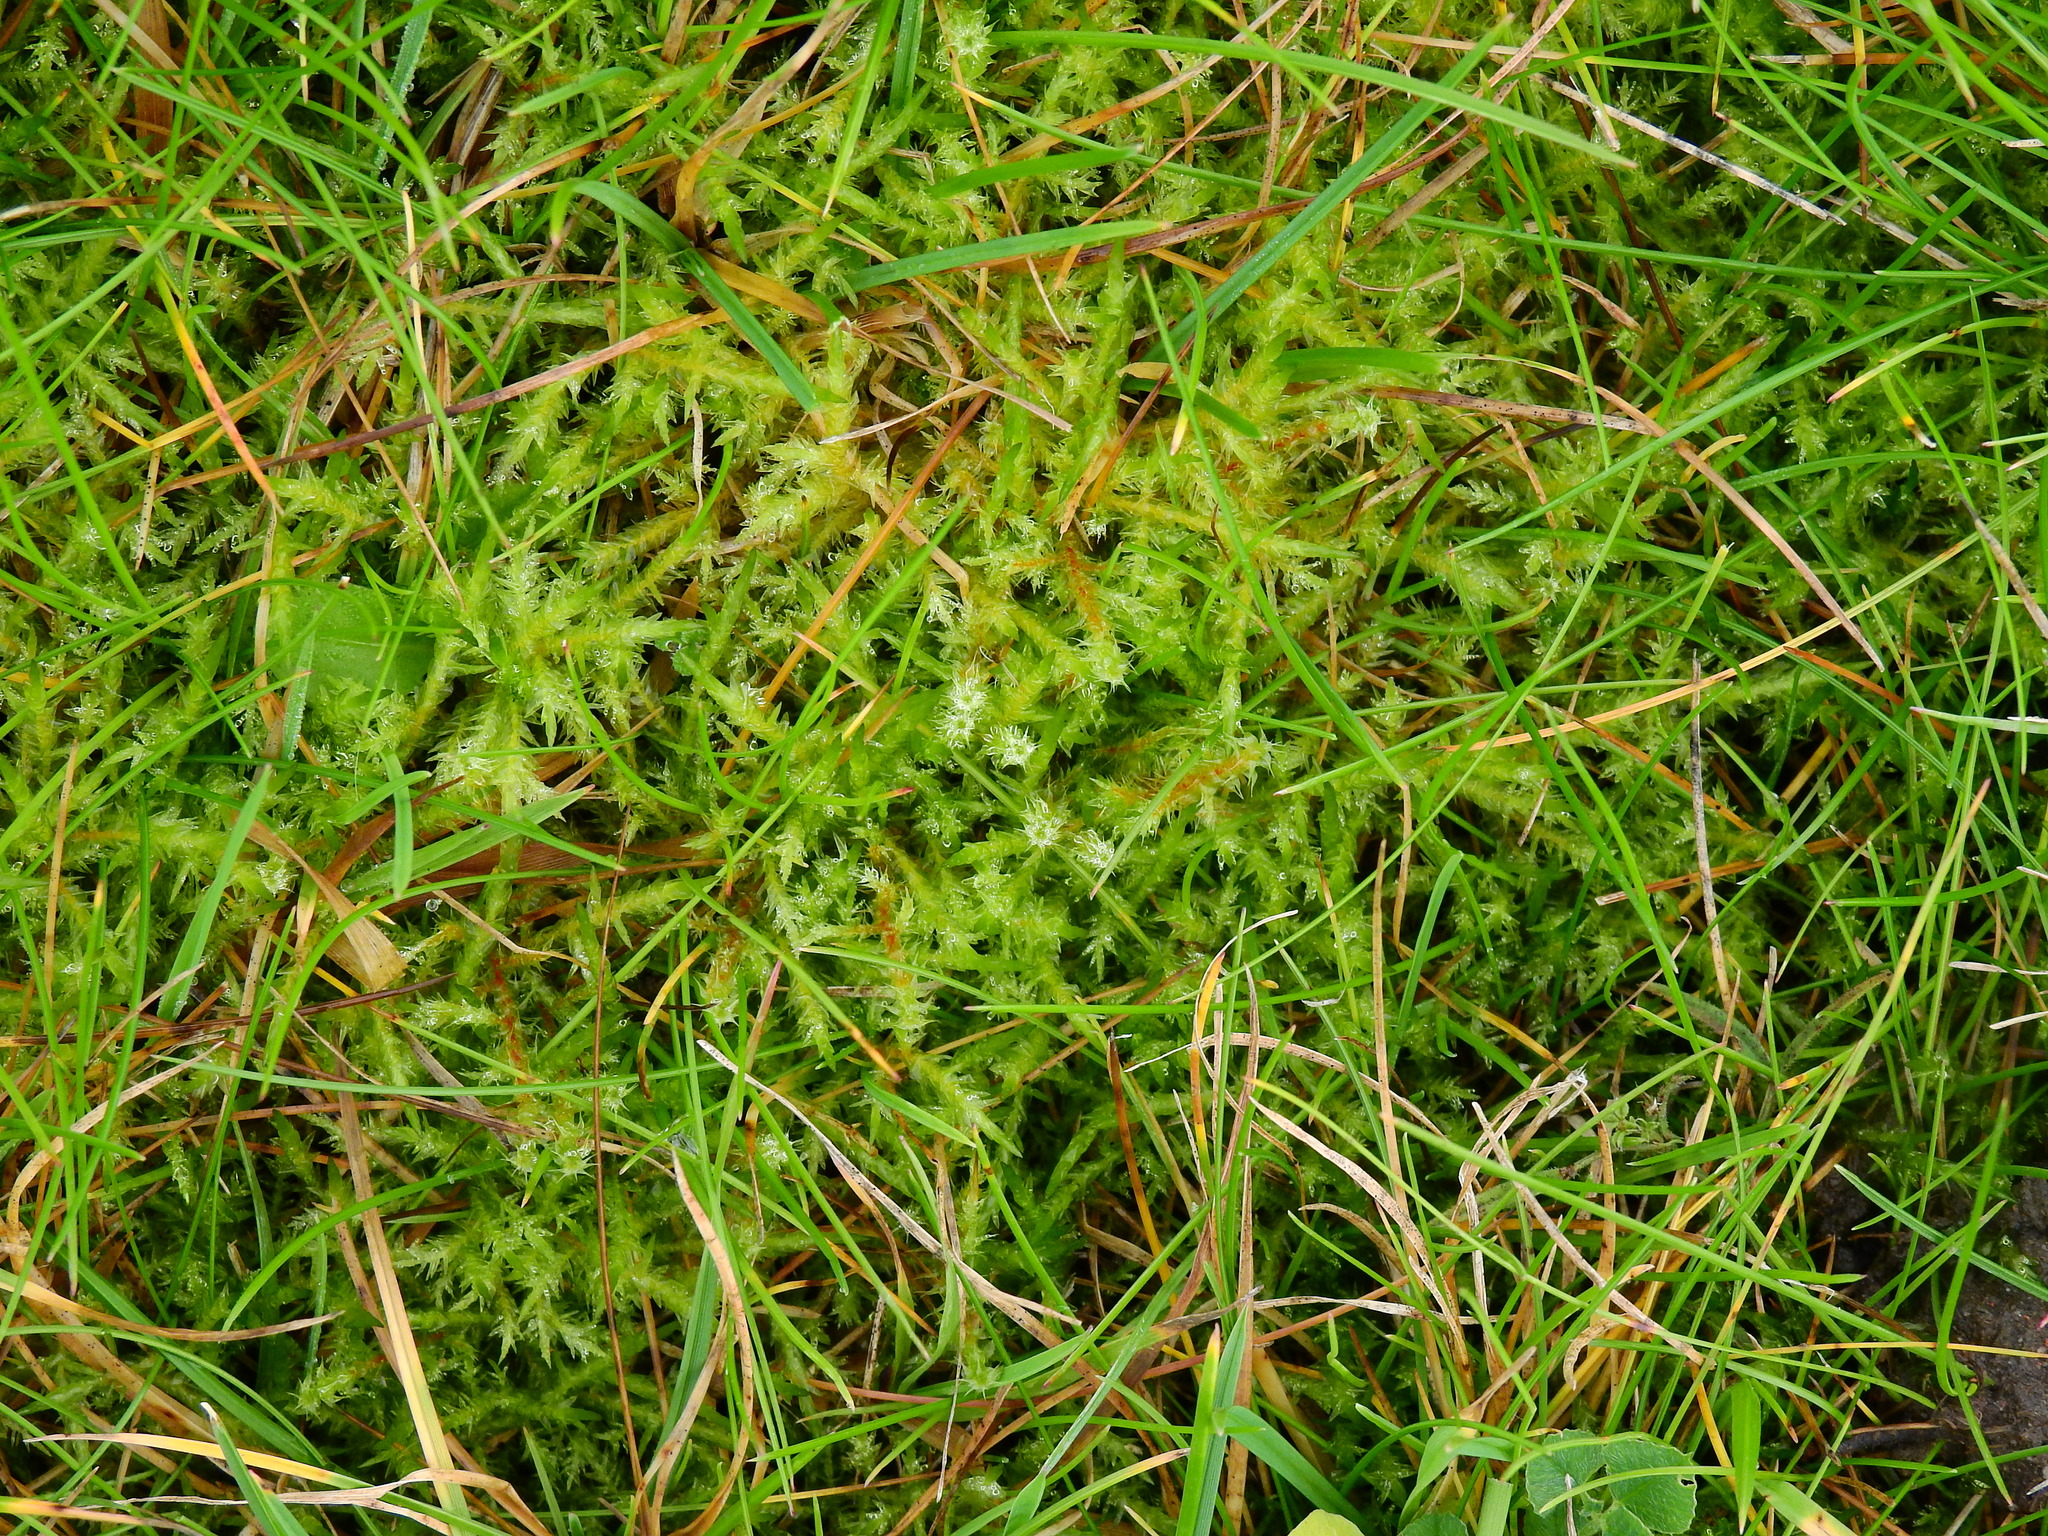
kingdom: Plantae
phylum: Bryophyta
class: Bryopsida
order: Hypnales
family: Hylocomiaceae
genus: Rhytidiadelphus
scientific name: Rhytidiadelphus squarrosus
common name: Springy turf-moss
